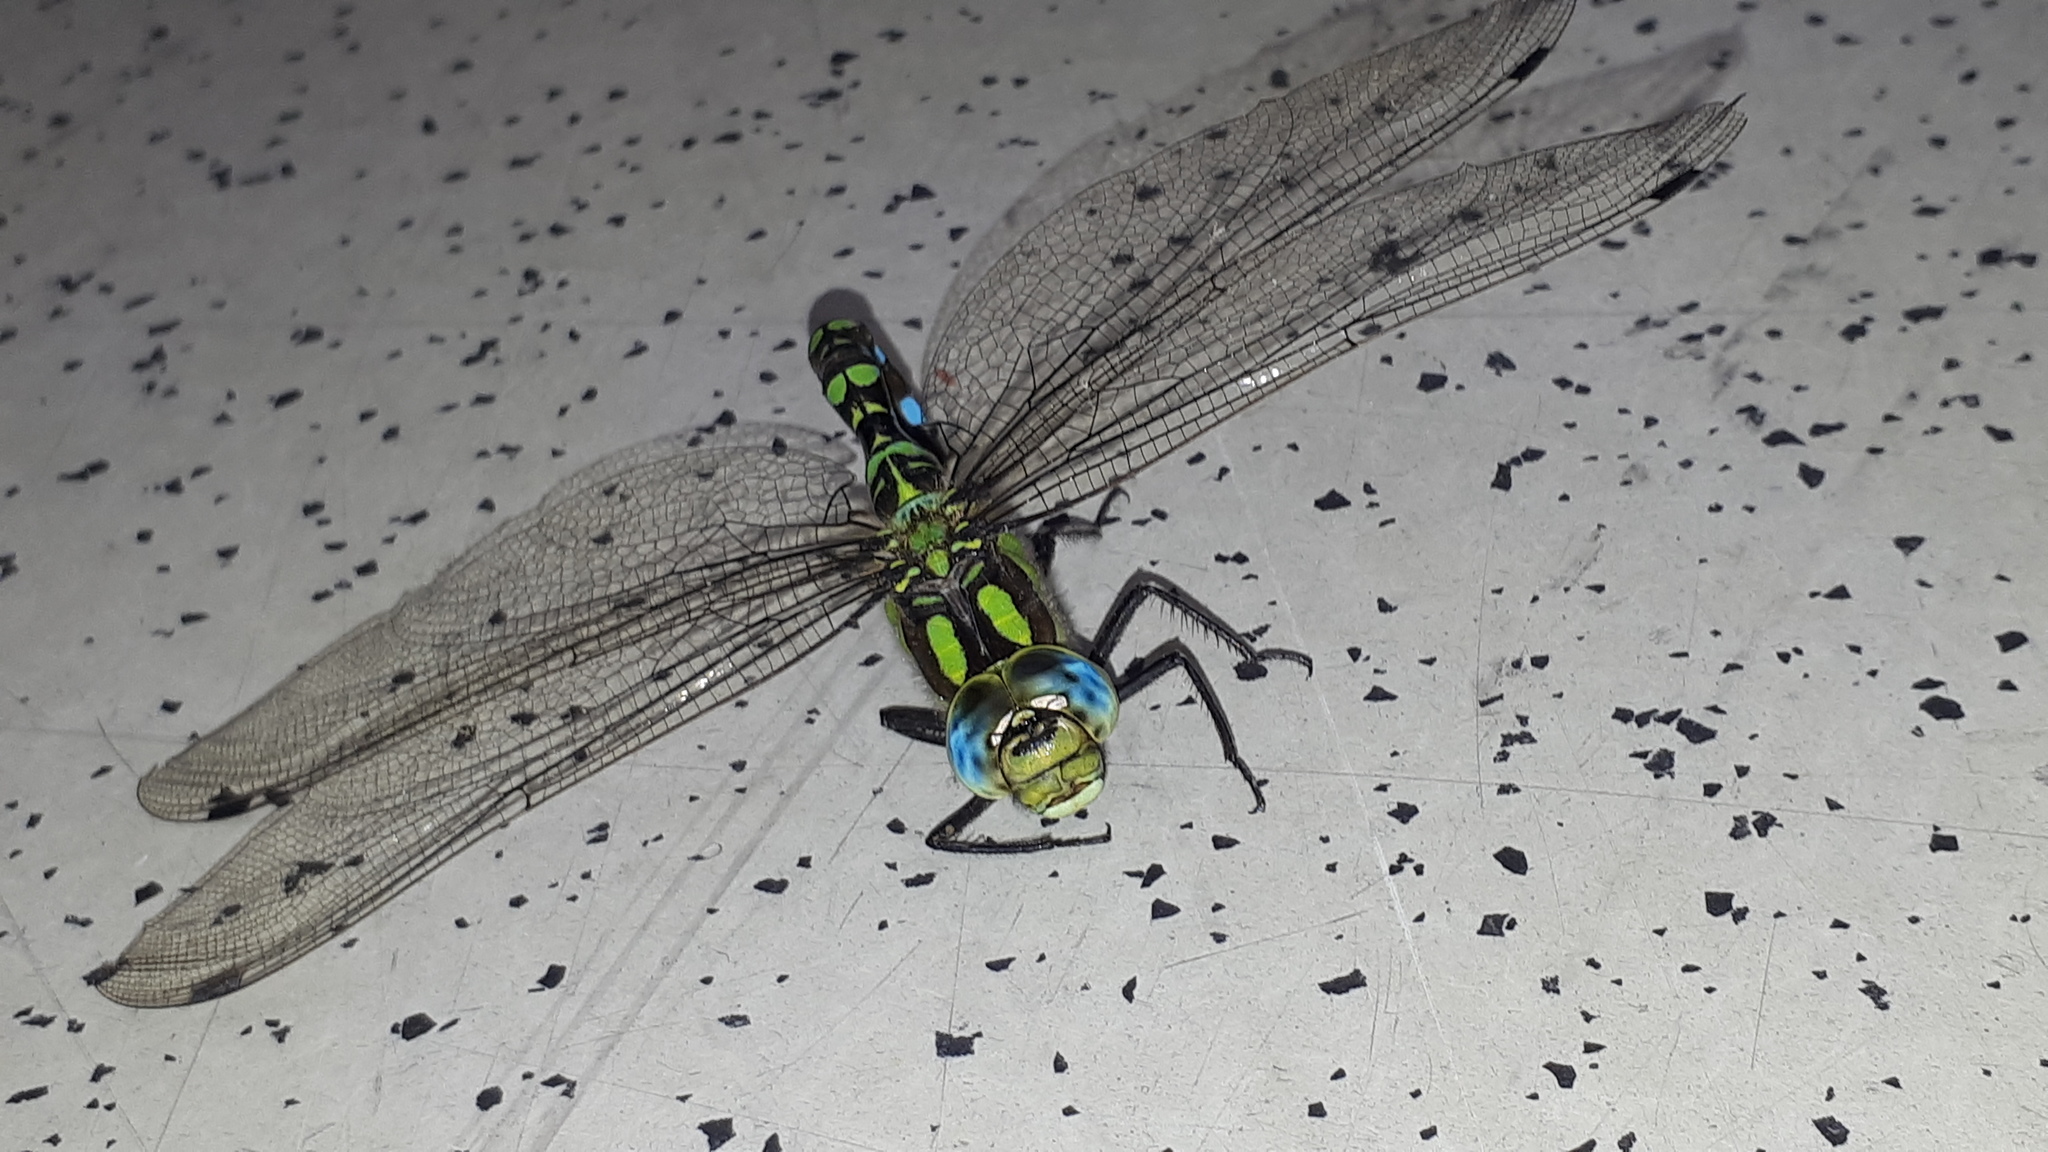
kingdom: Animalia
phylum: Arthropoda
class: Insecta
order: Odonata
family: Aeshnidae
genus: Aeshna
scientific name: Aeshna cyanea
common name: Southern hawker
